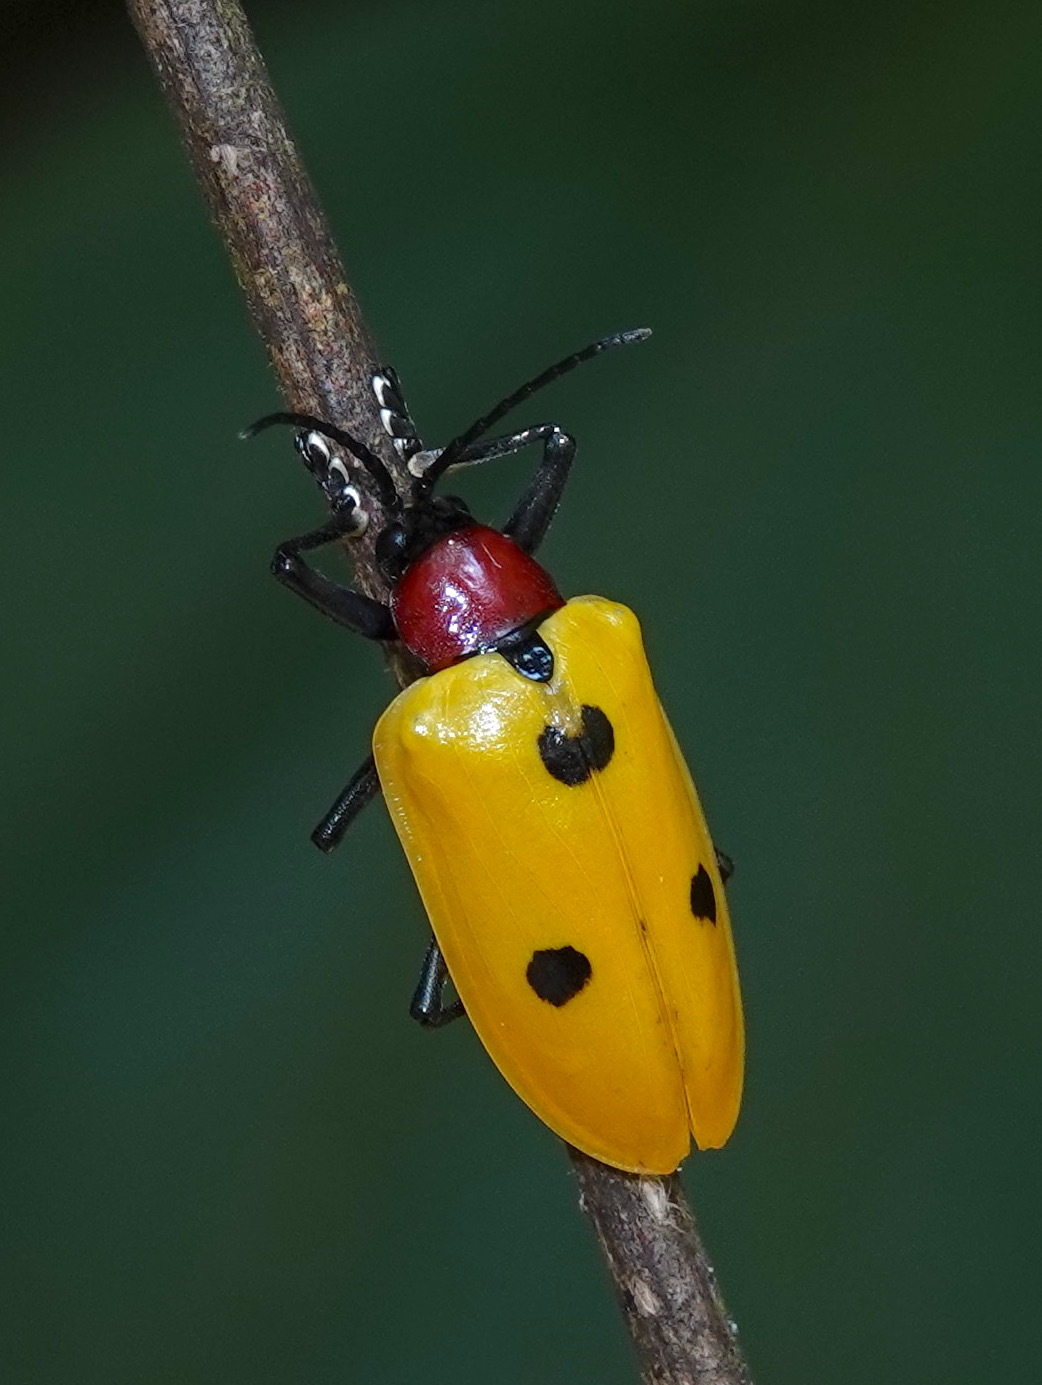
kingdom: Animalia
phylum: Arthropoda
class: Insecta
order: Coleoptera
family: Chrysomelidae
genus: Alurnus
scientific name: Alurnus batesii
